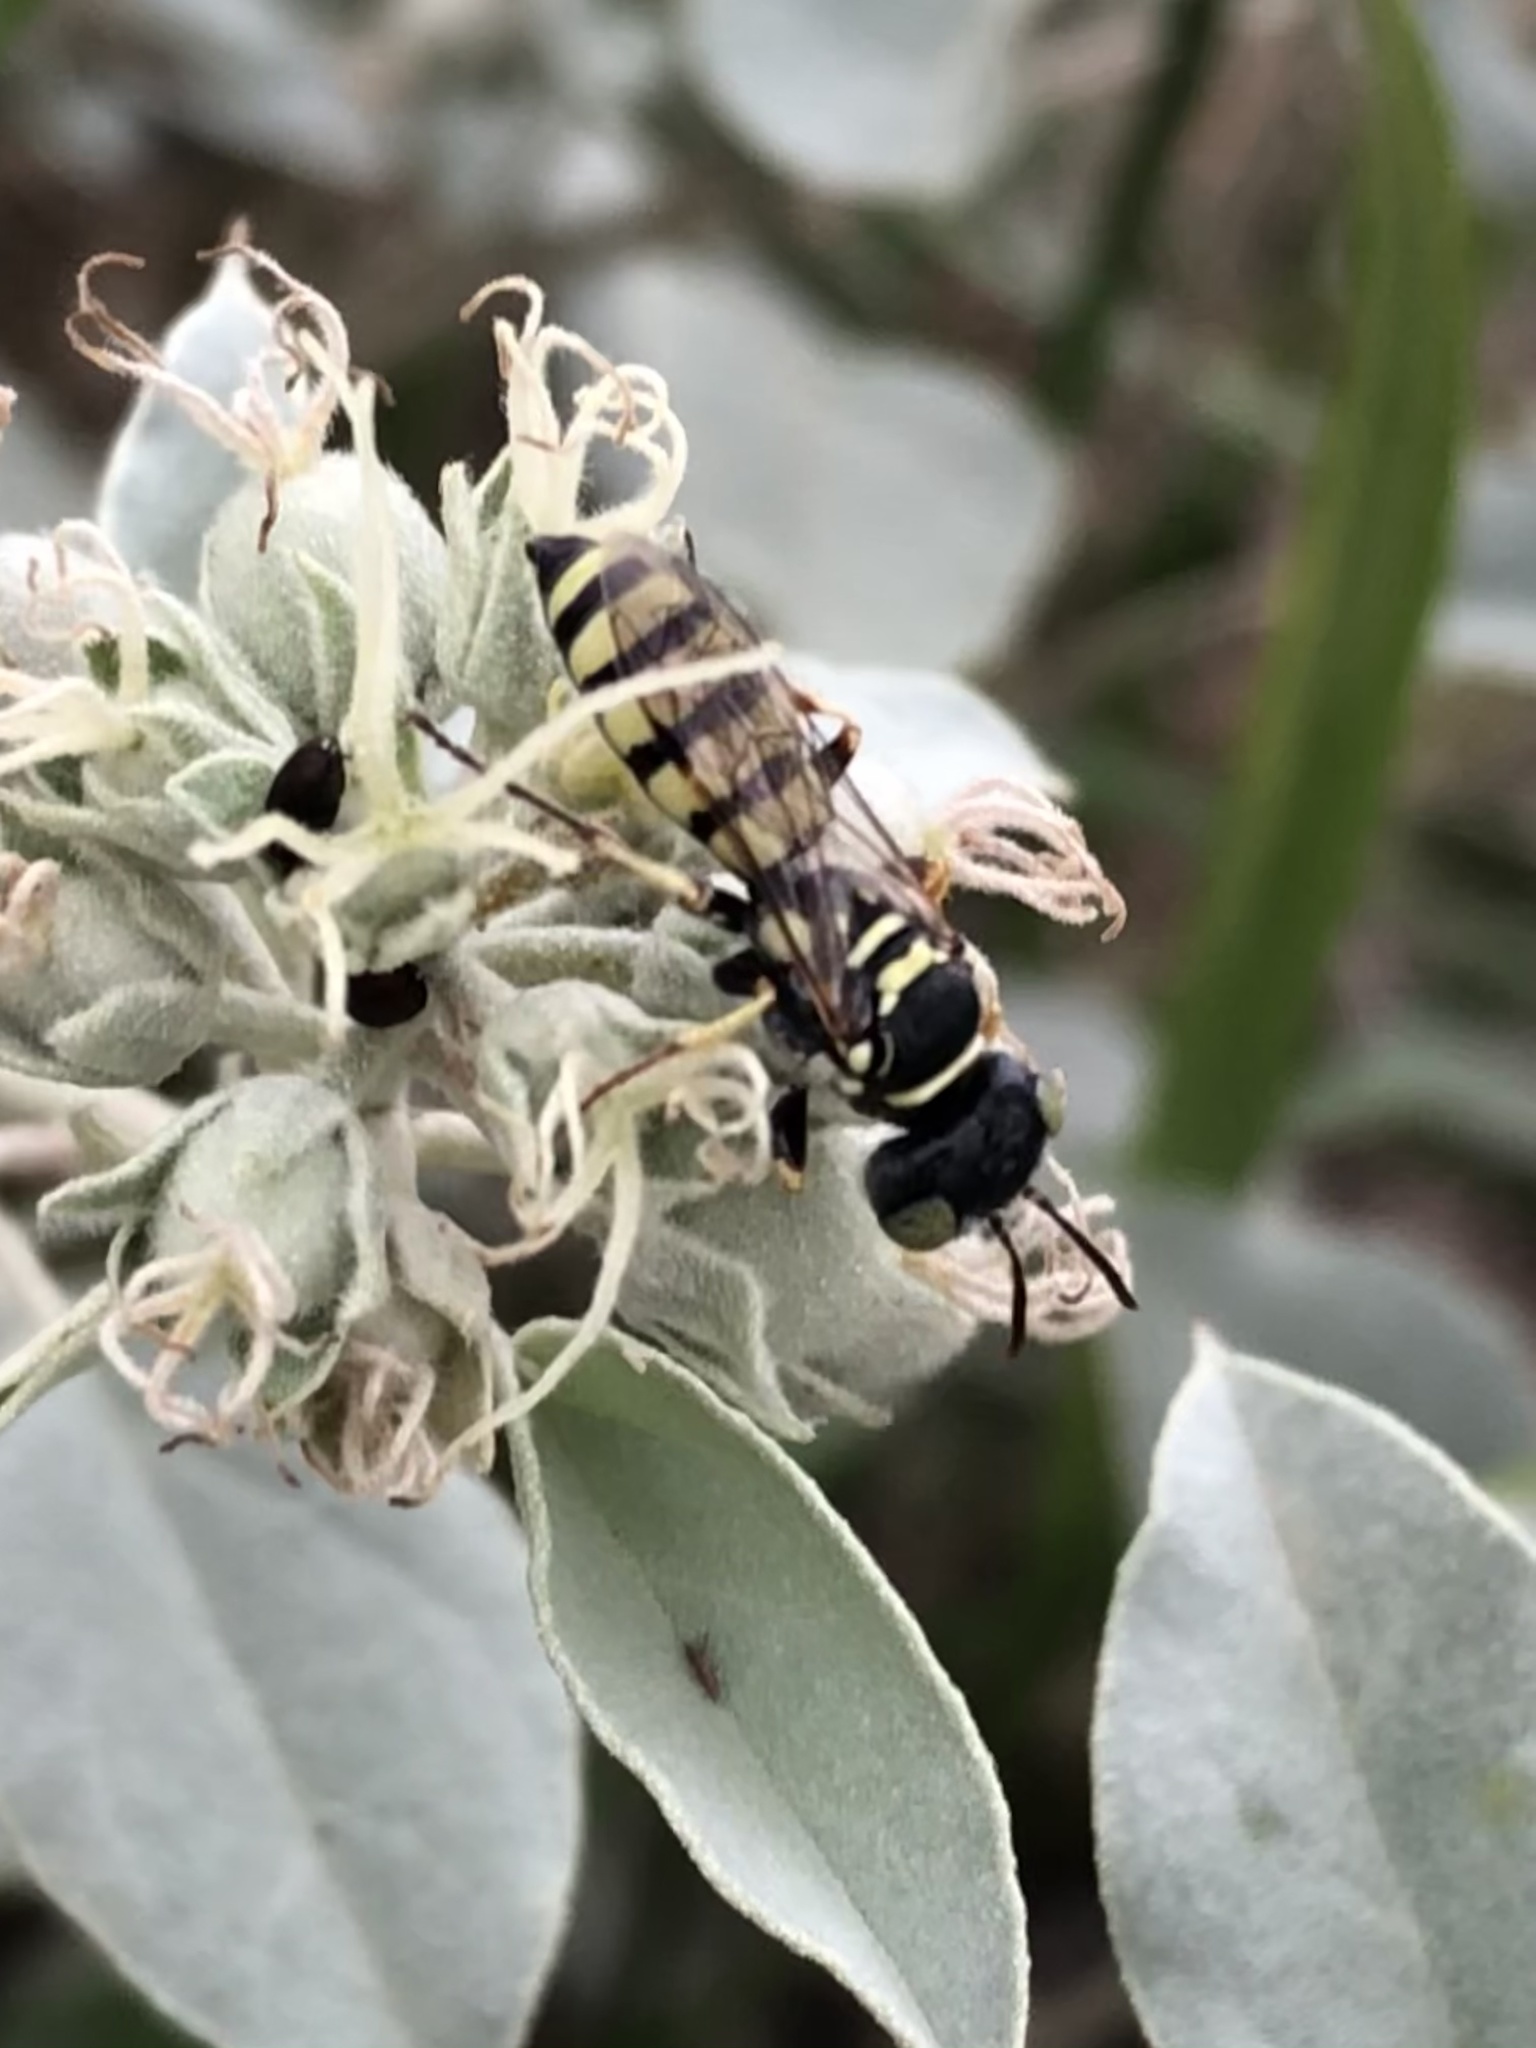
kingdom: Animalia
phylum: Arthropoda
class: Insecta
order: Hymenoptera
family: Crabronidae
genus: Clypeadon
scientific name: Clypeadon
